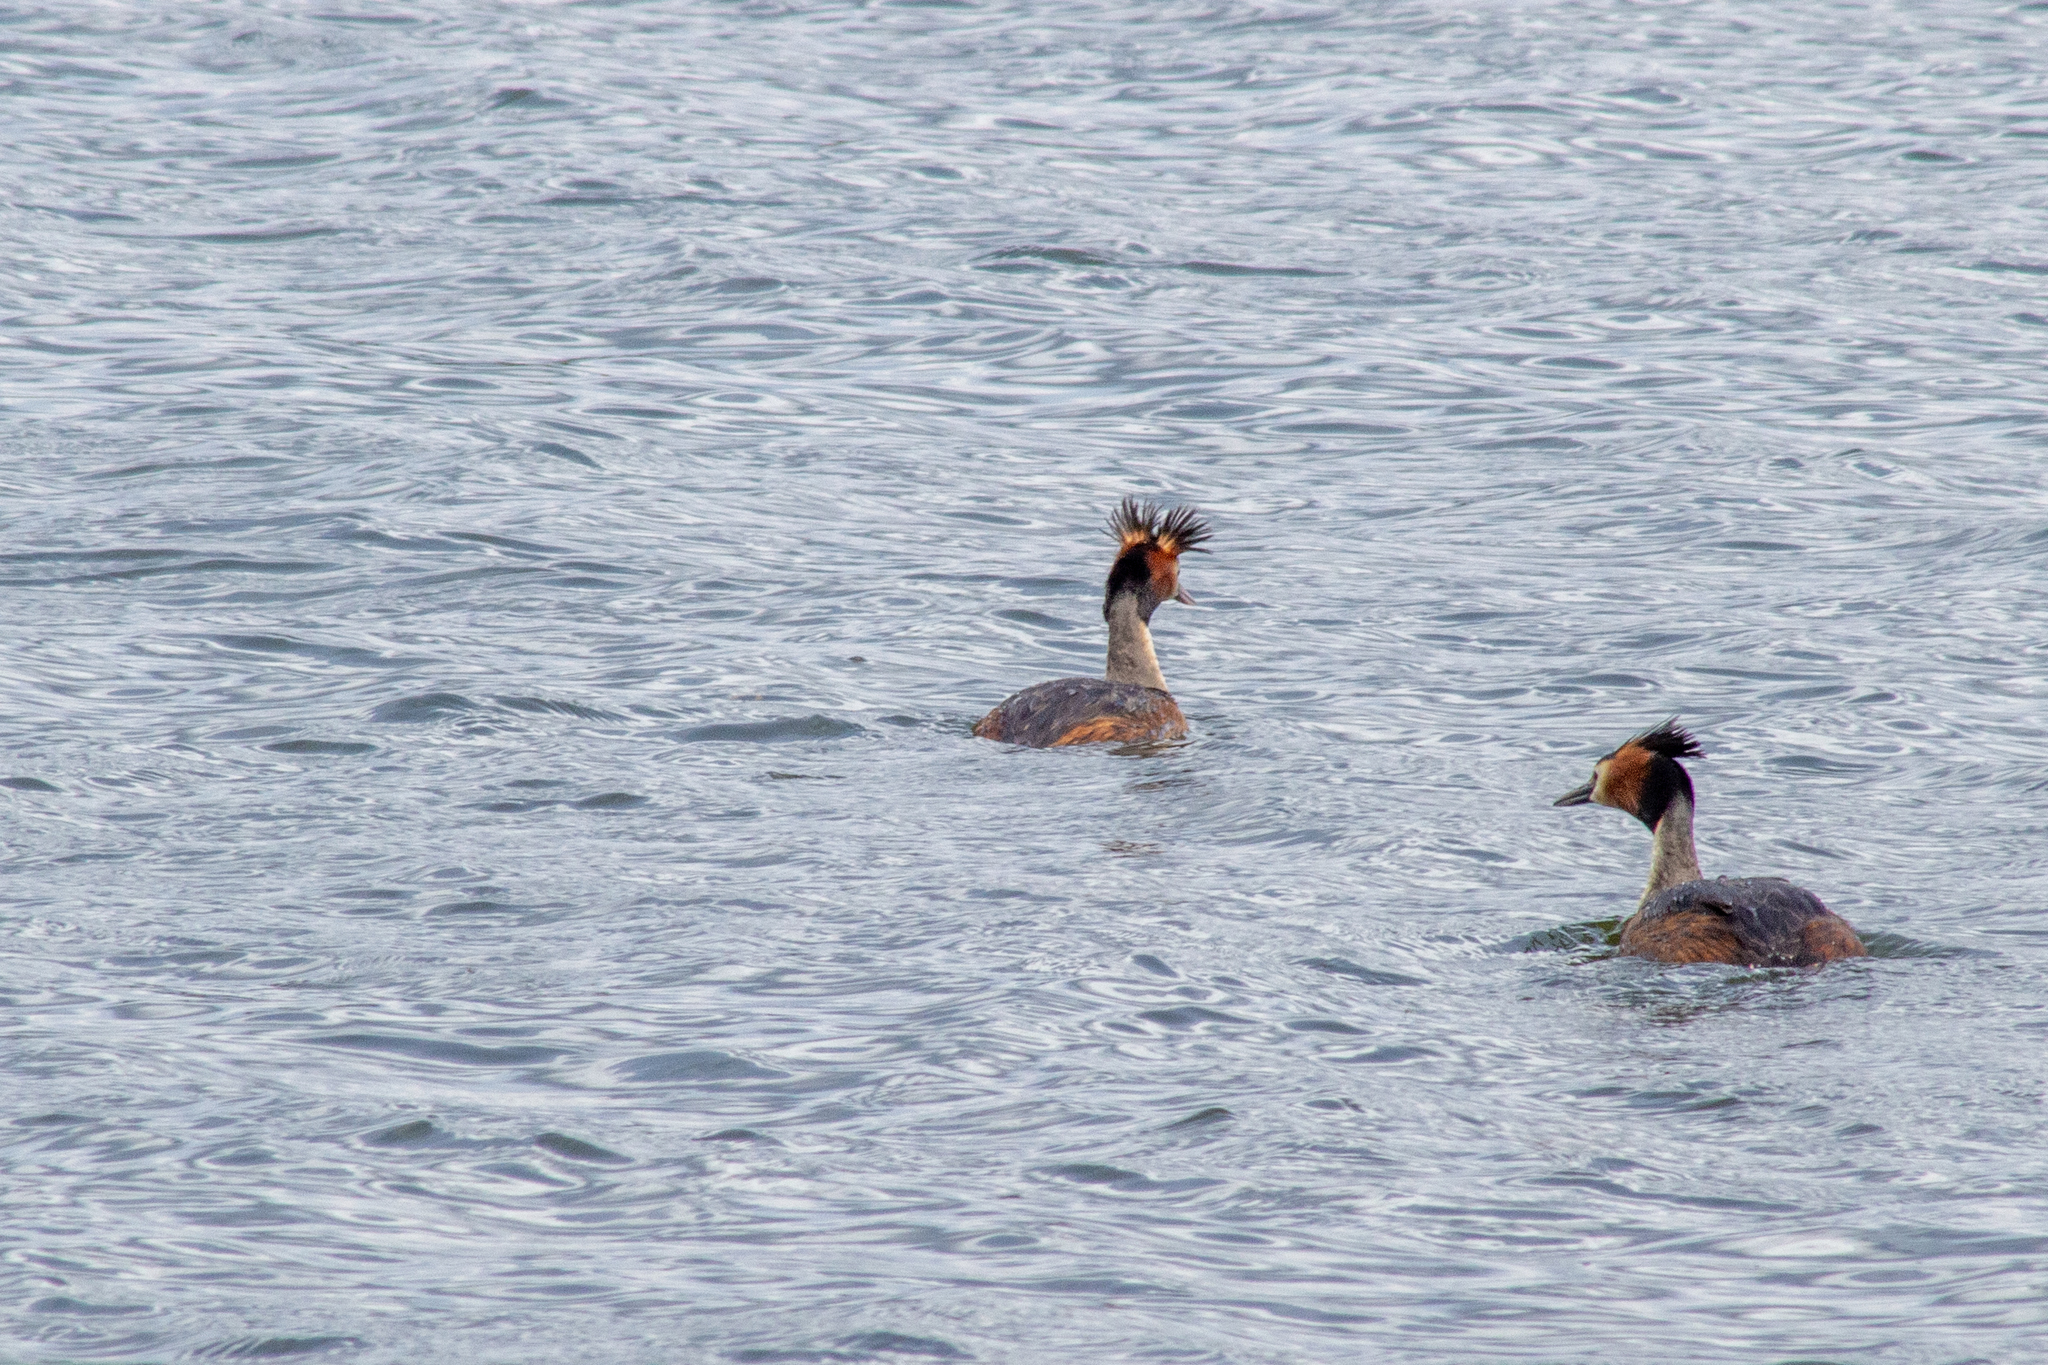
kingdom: Animalia
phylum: Chordata
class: Aves
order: Podicipediformes
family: Podicipedidae
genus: Podiceps
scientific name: Podiceps cristatus
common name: Great crested grebe
